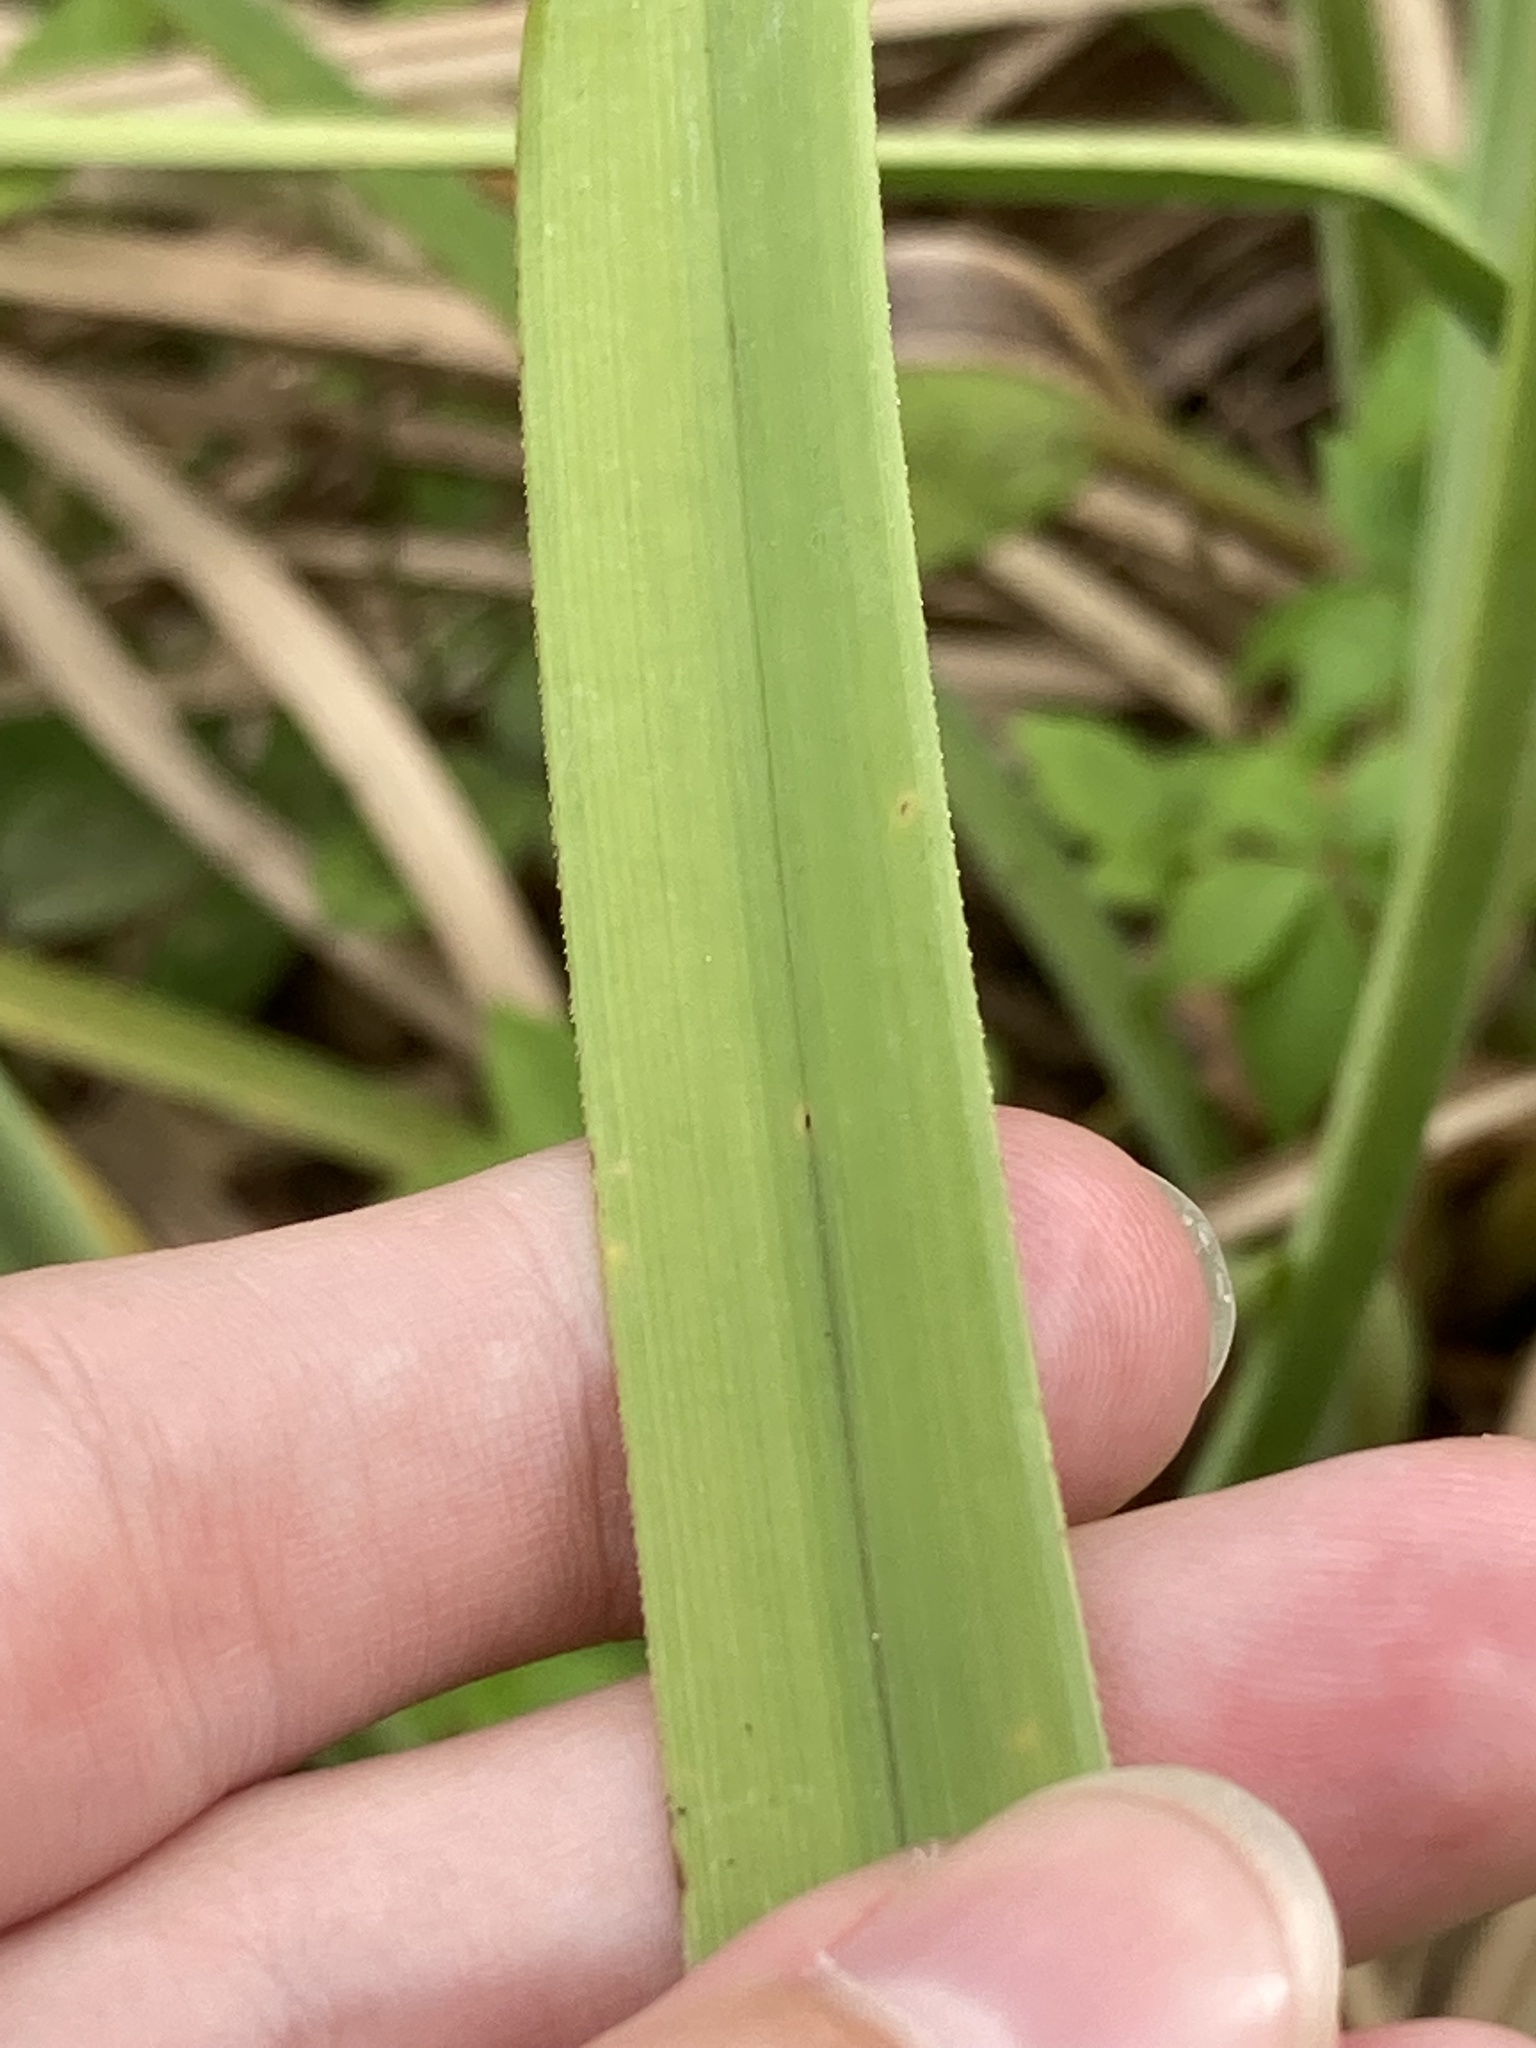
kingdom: Plantae
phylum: Tracheophyta
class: Liliopsida
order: Poales
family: Cyperaceae
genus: Cyperus
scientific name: Cyperus ligularis
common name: Swamp flat sedge
